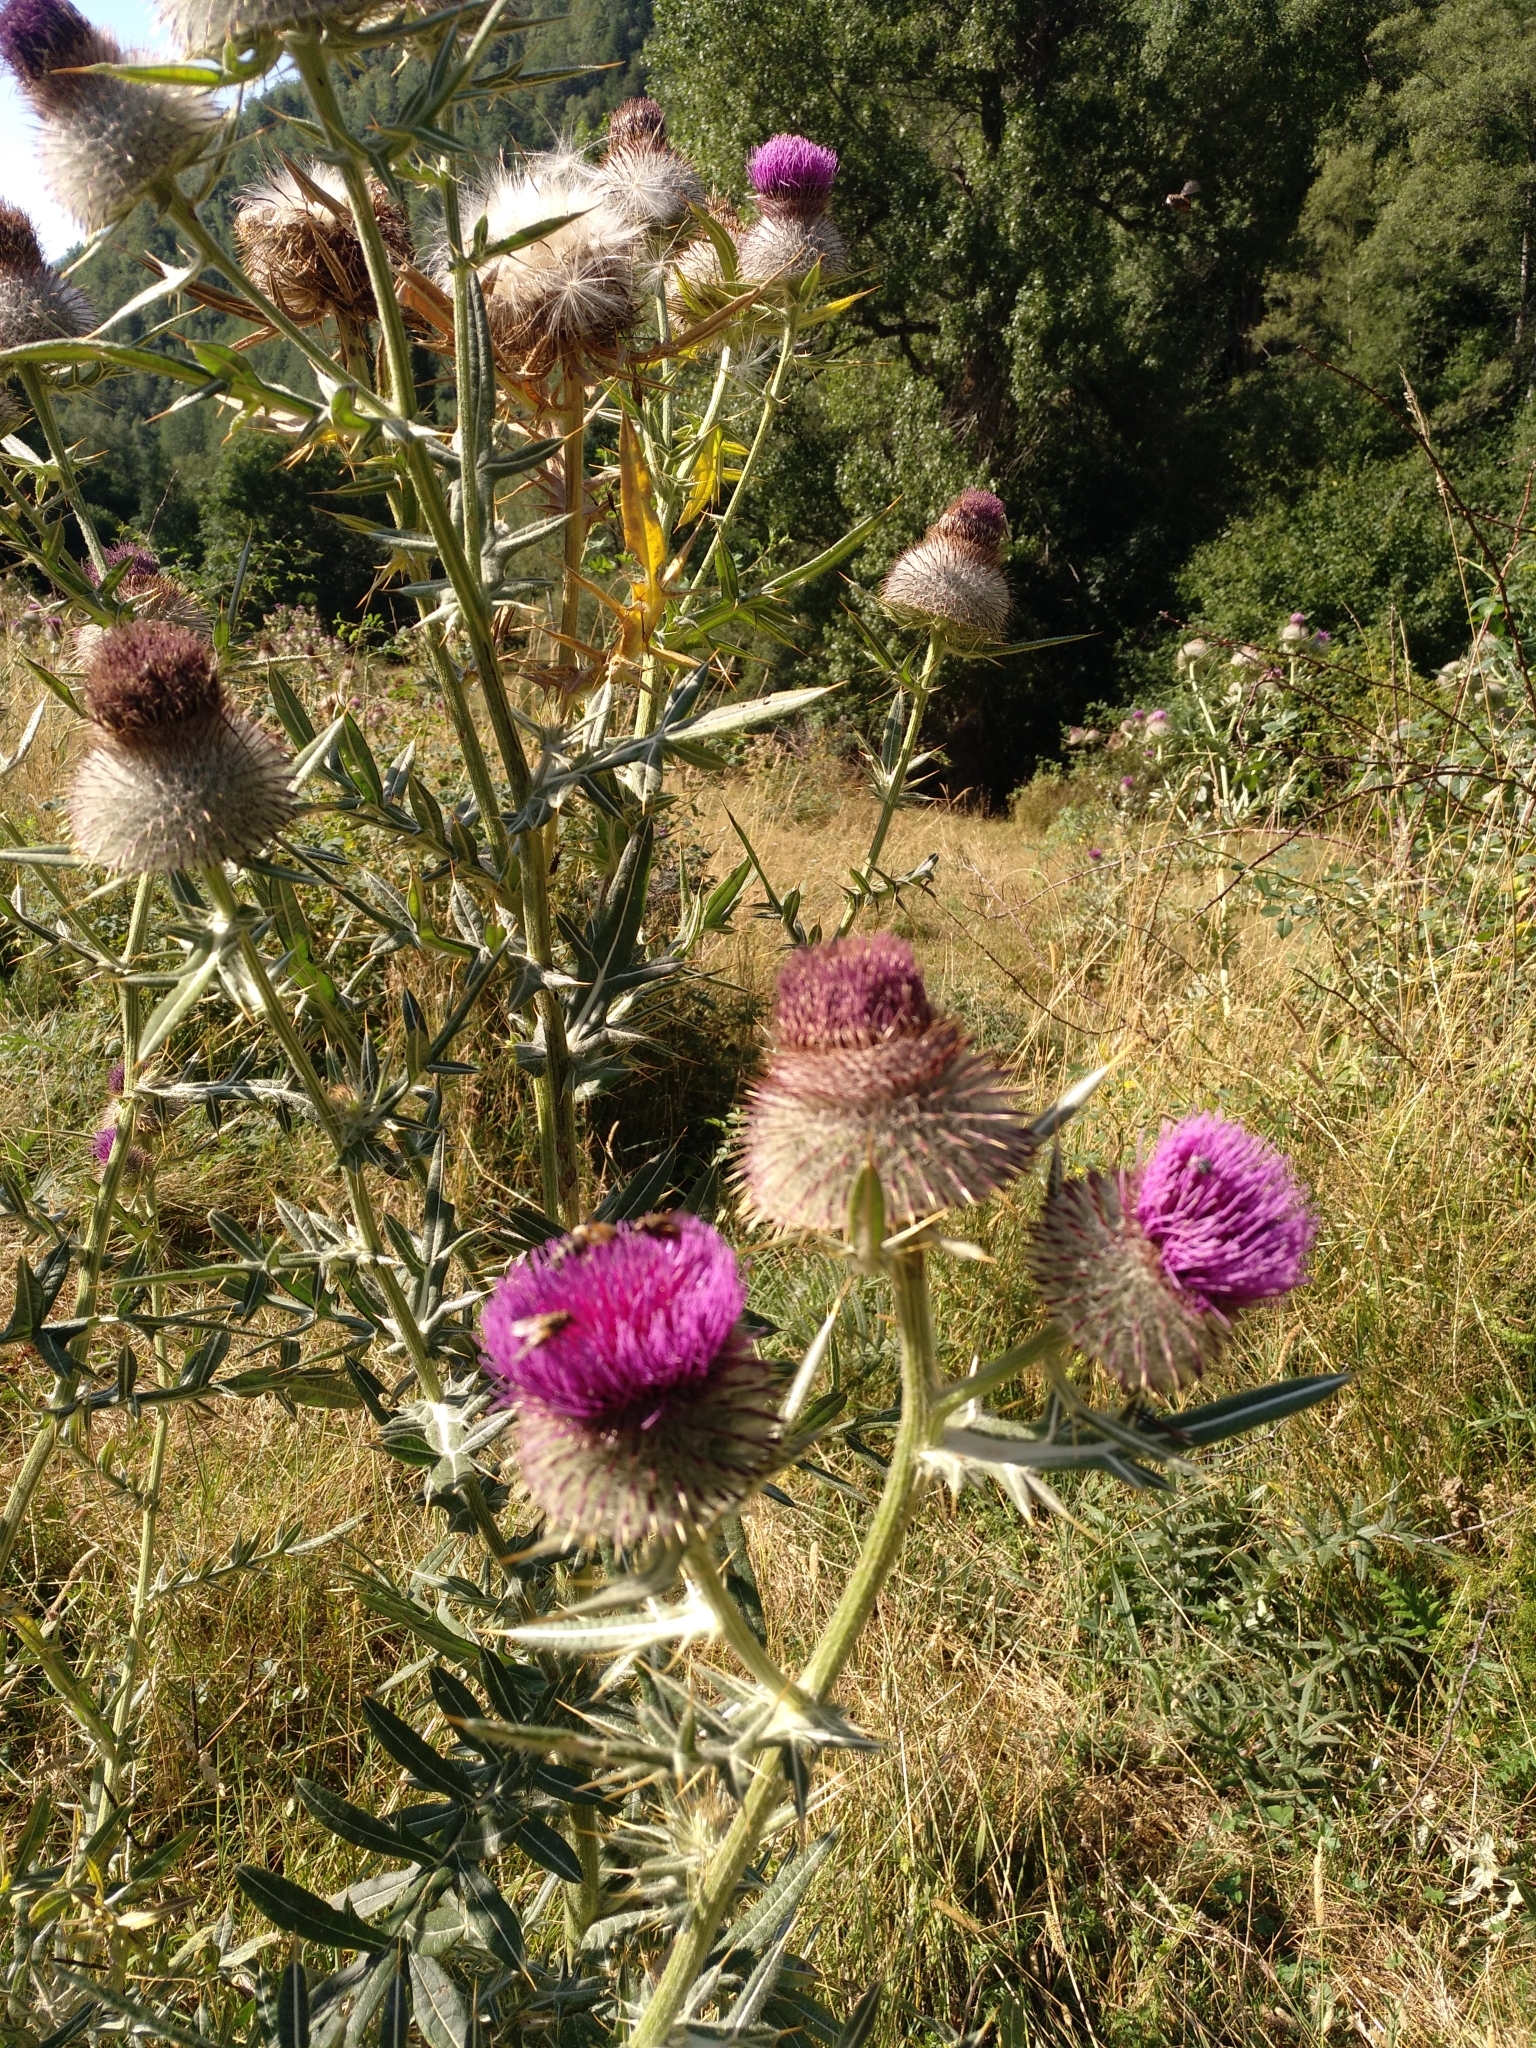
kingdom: Plantae
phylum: Tracheophyta
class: Magnoliopsida
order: Asterales
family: Asteraceae
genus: Lophiolepis
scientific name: Lophiolepis eriophora
